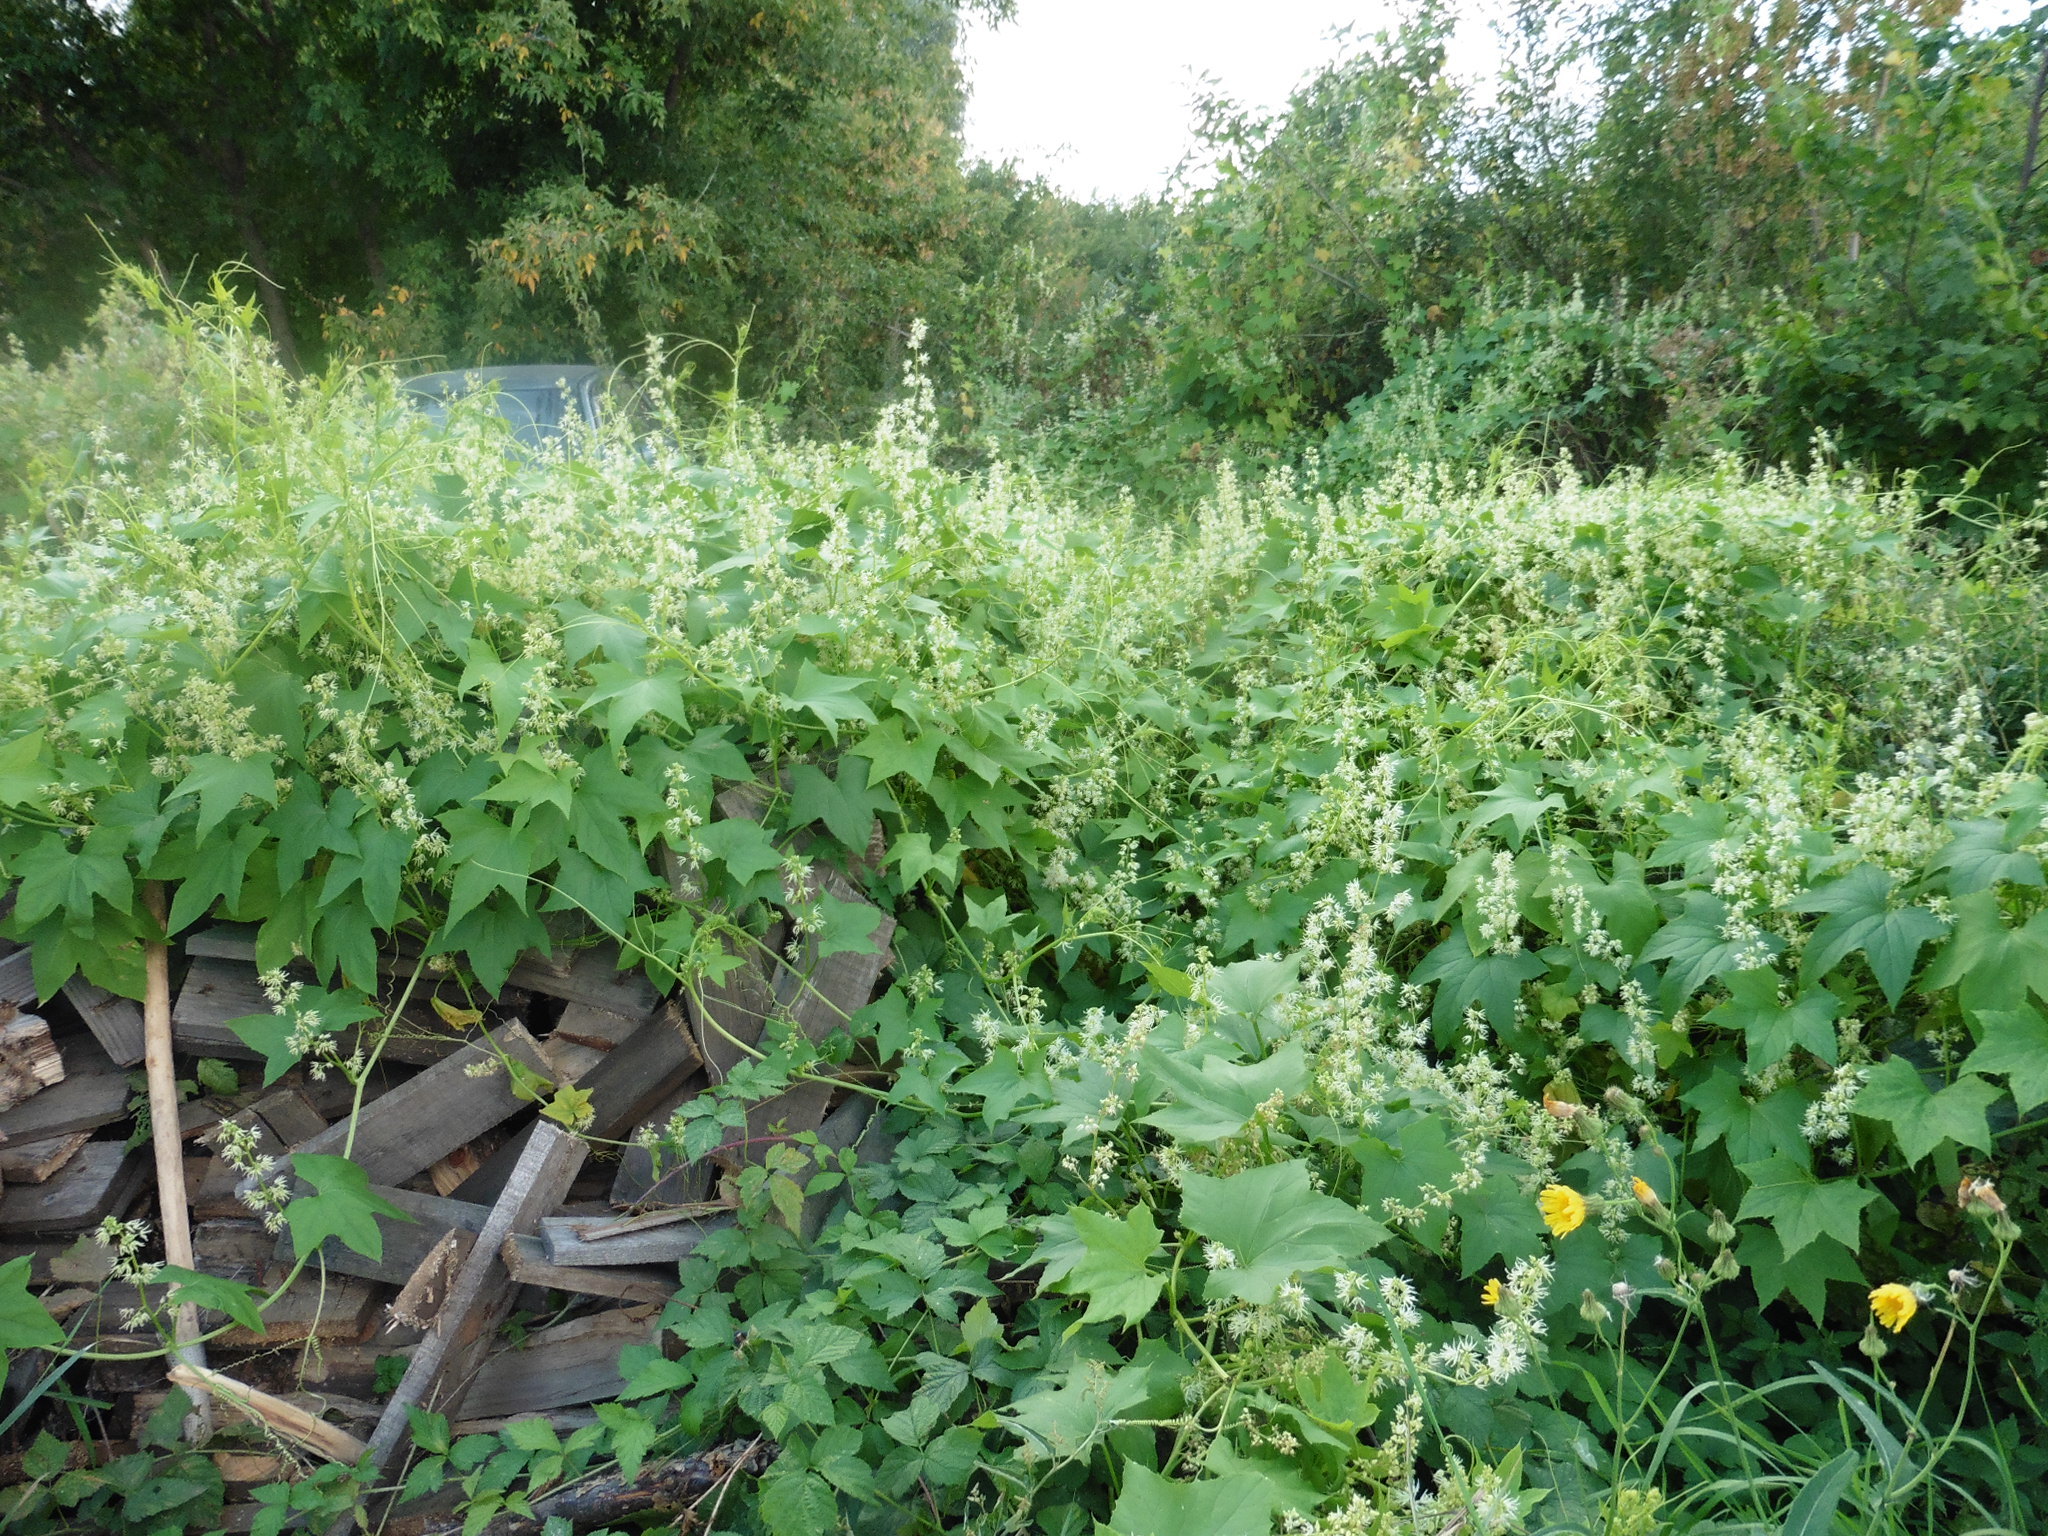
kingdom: Plantae
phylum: Tracheophyta
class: Magnoliopsida
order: Cucurbitales
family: Cucurbitaceae
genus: Echinocystis
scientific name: Echinocystis lobata
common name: Wild cucumber
